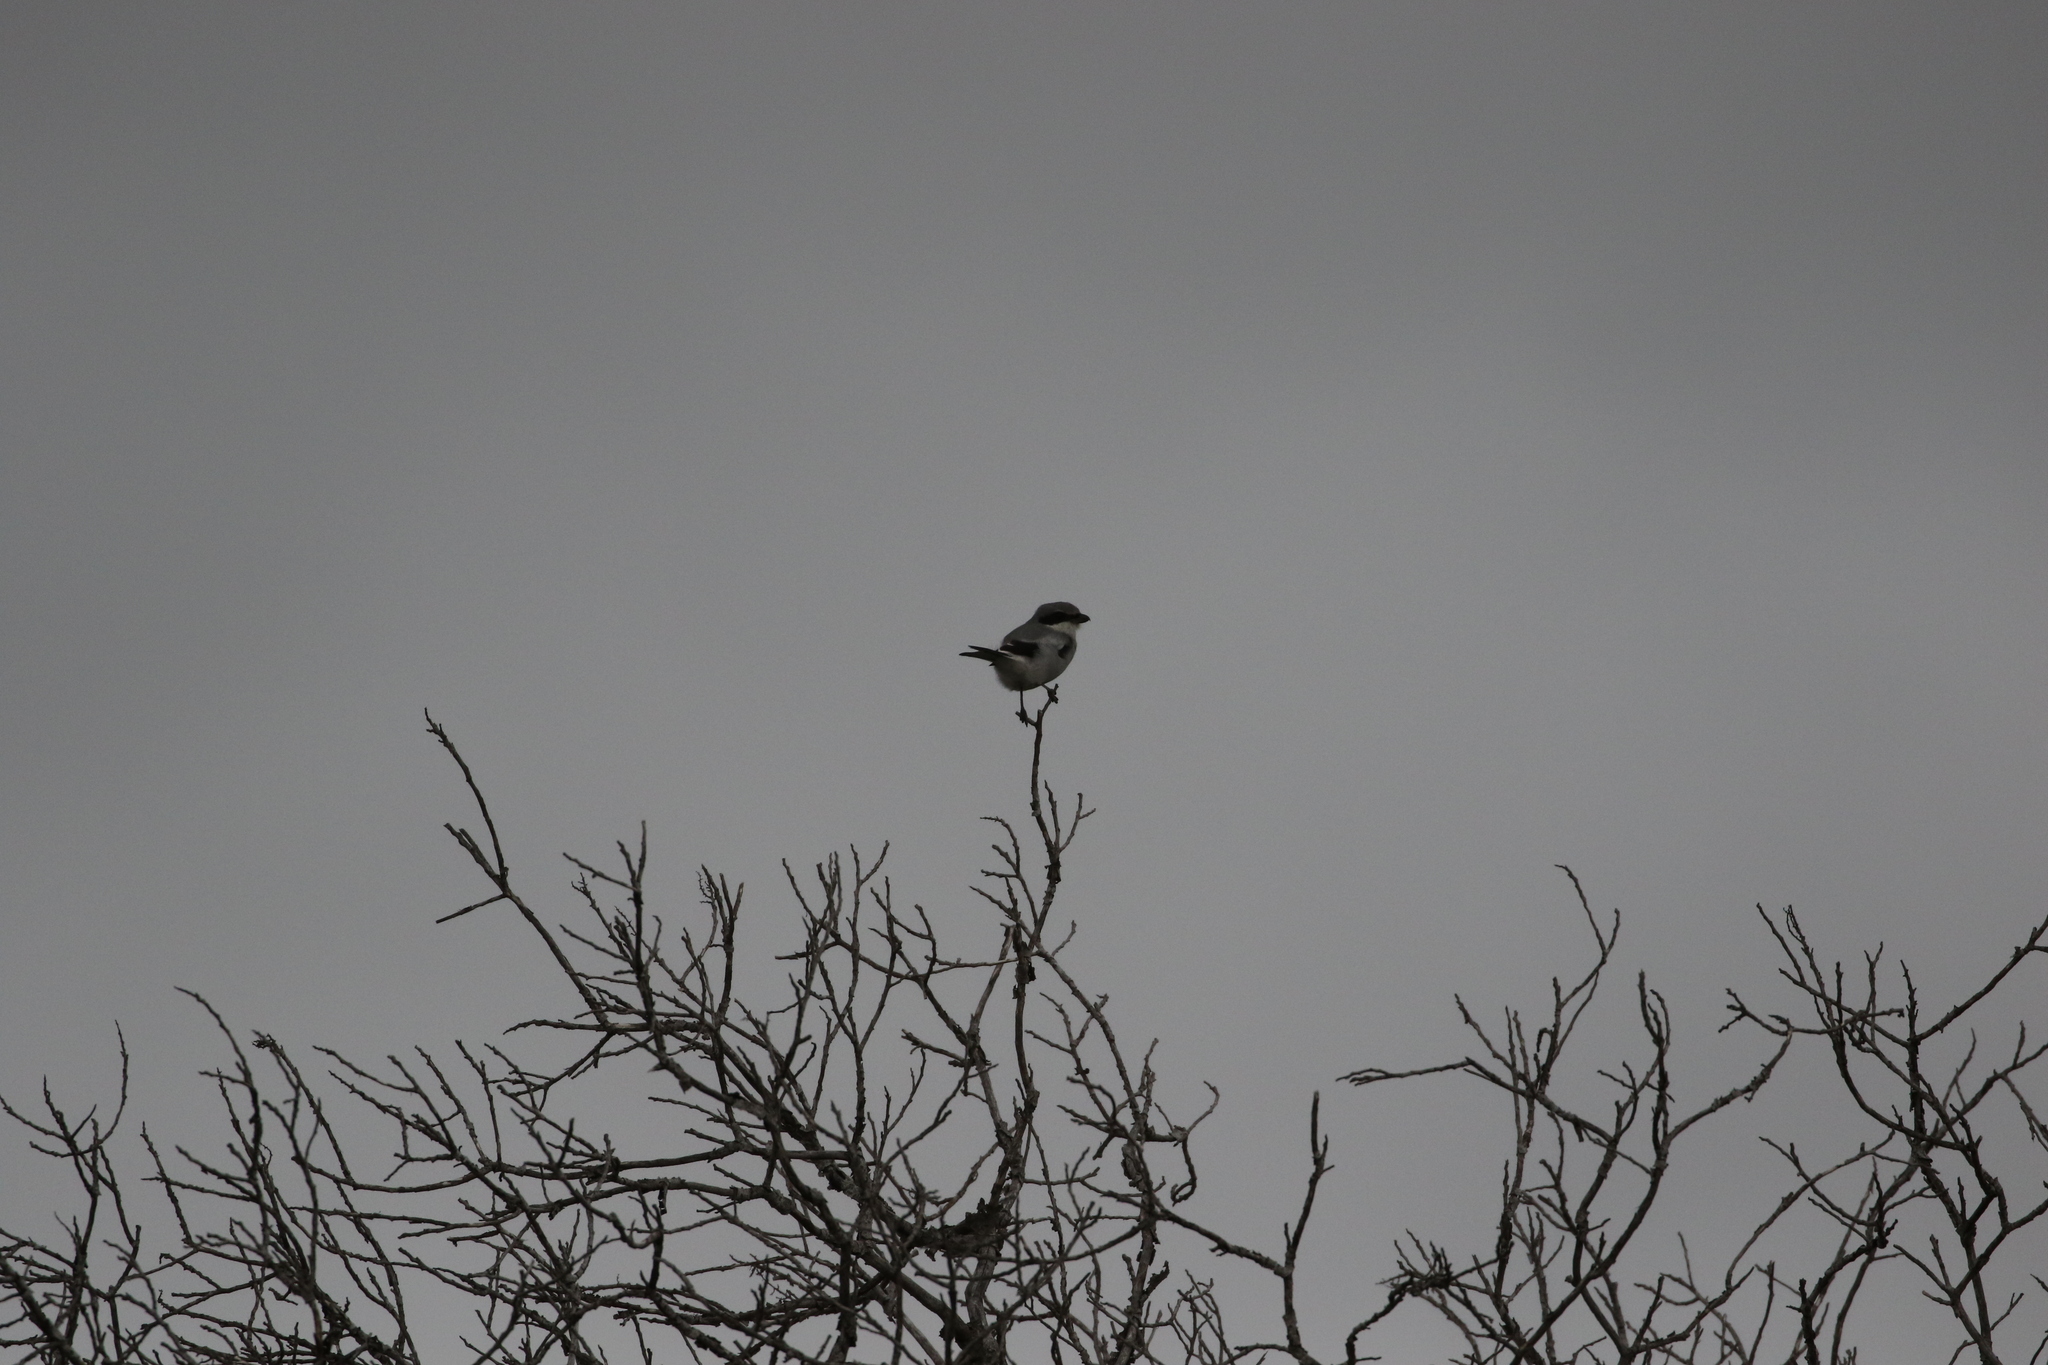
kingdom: Animalia
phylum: Chordata
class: Aves
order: Passeriformes
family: Laniidae
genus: Lanius
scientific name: Lanius ludovicianus
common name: Loggerhead shrike
